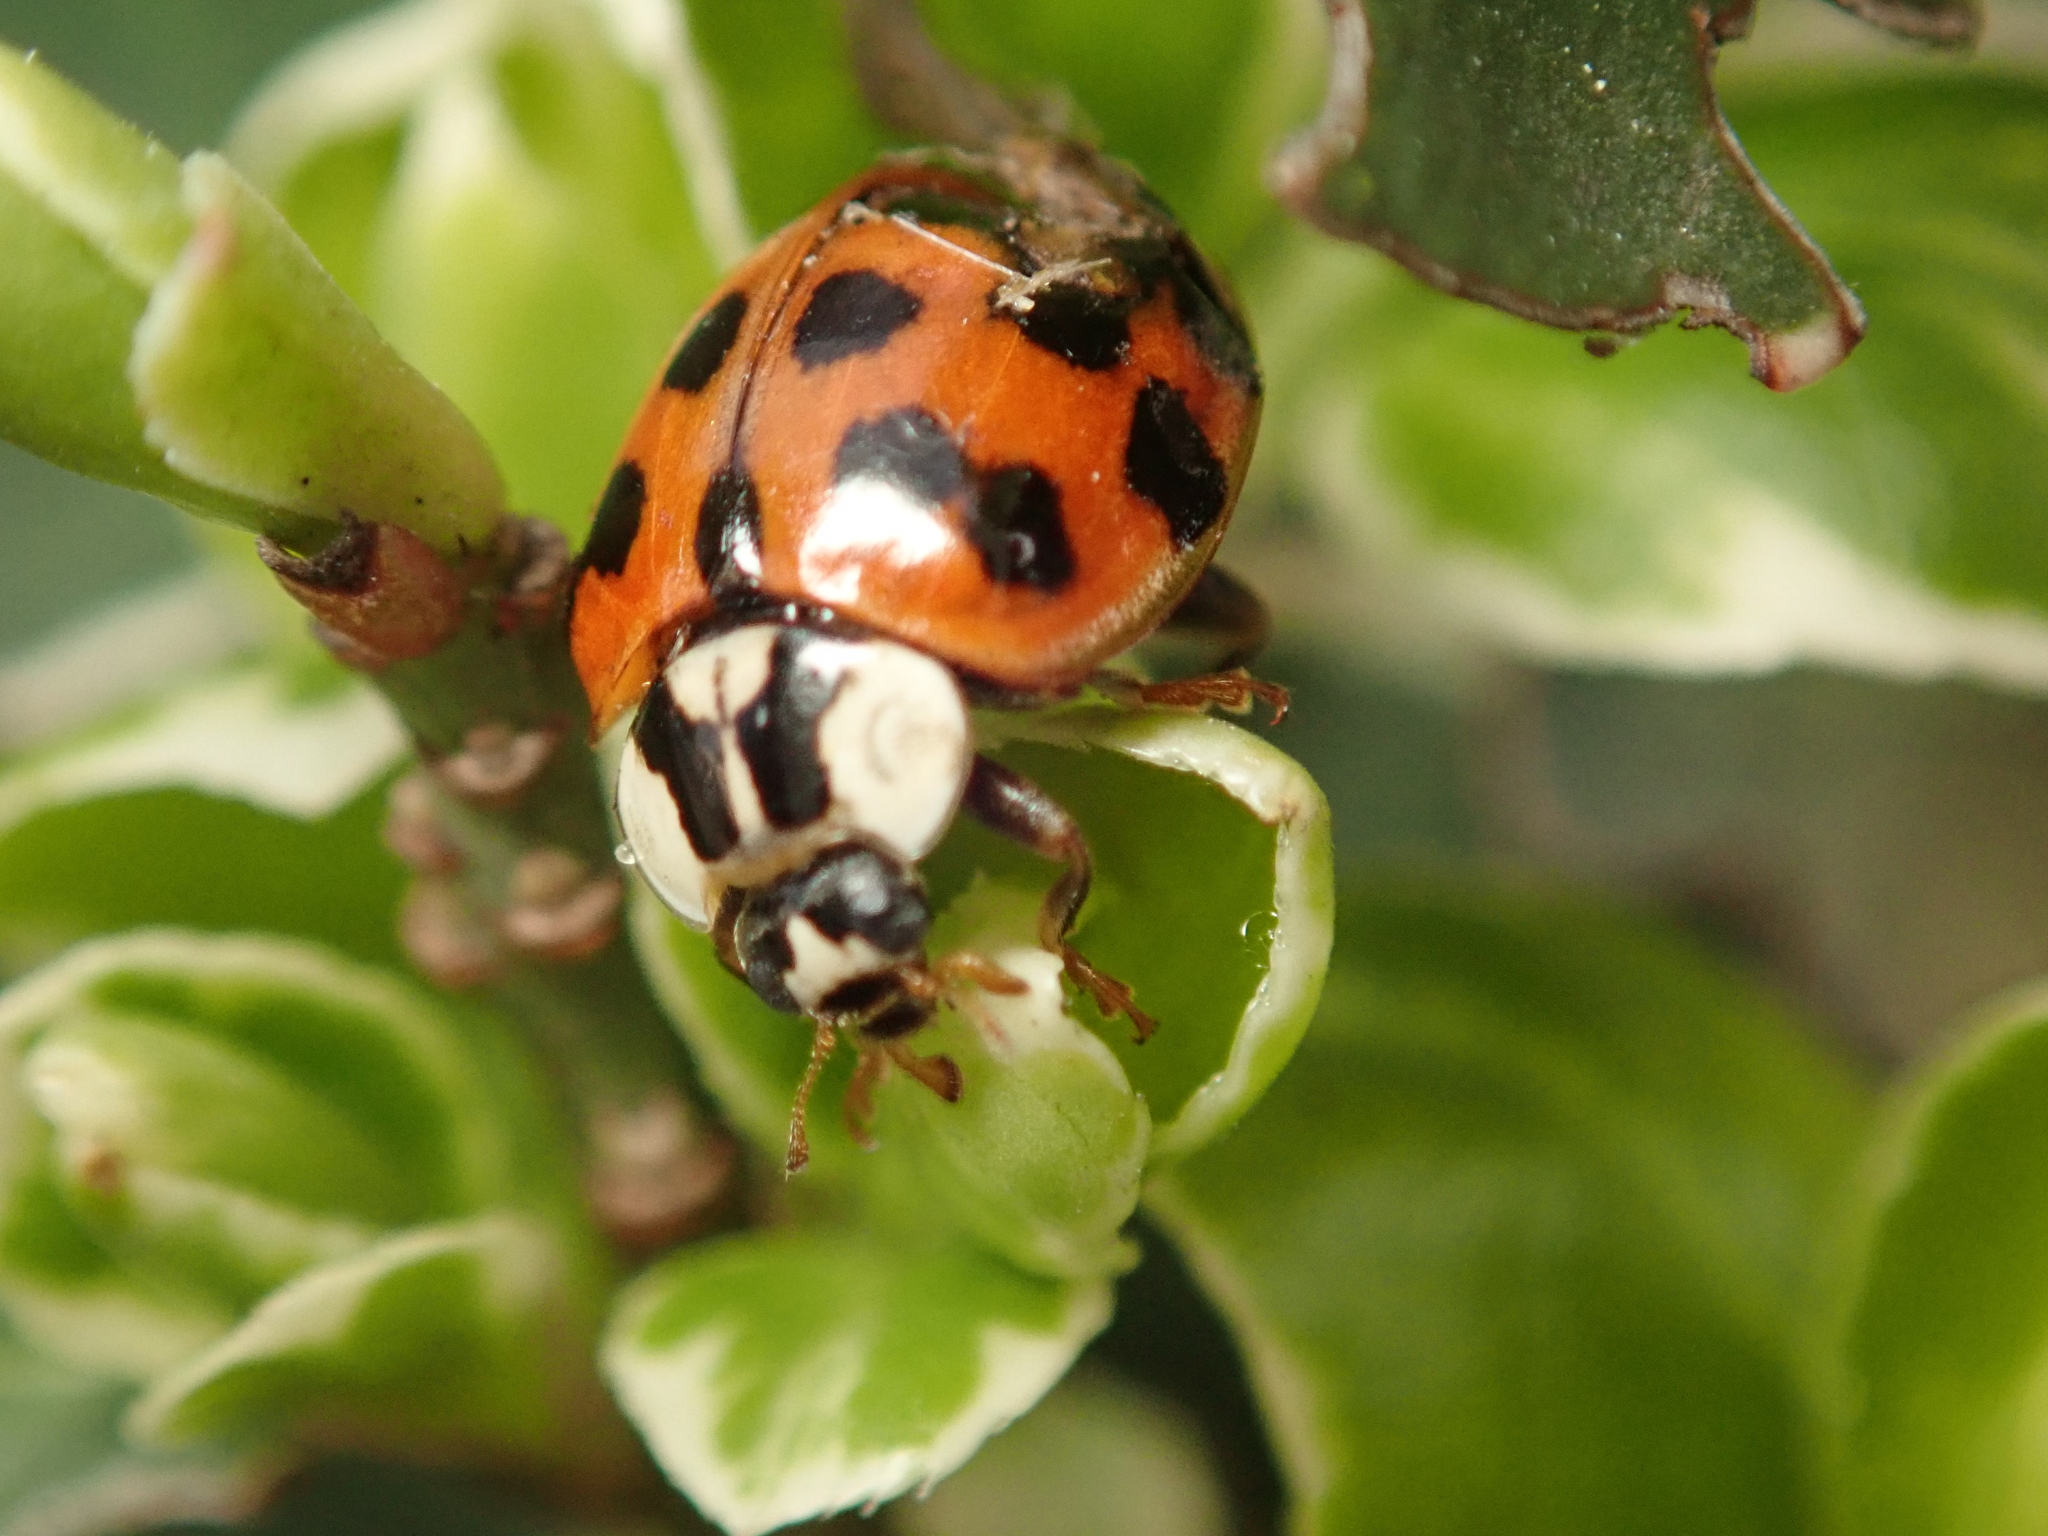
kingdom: Animalia
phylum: Arthropoda
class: Insecta
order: Coleoptera
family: Coccinellidae
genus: Harmonia
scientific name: Harmonia axyridis
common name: Harlequin ladybird
